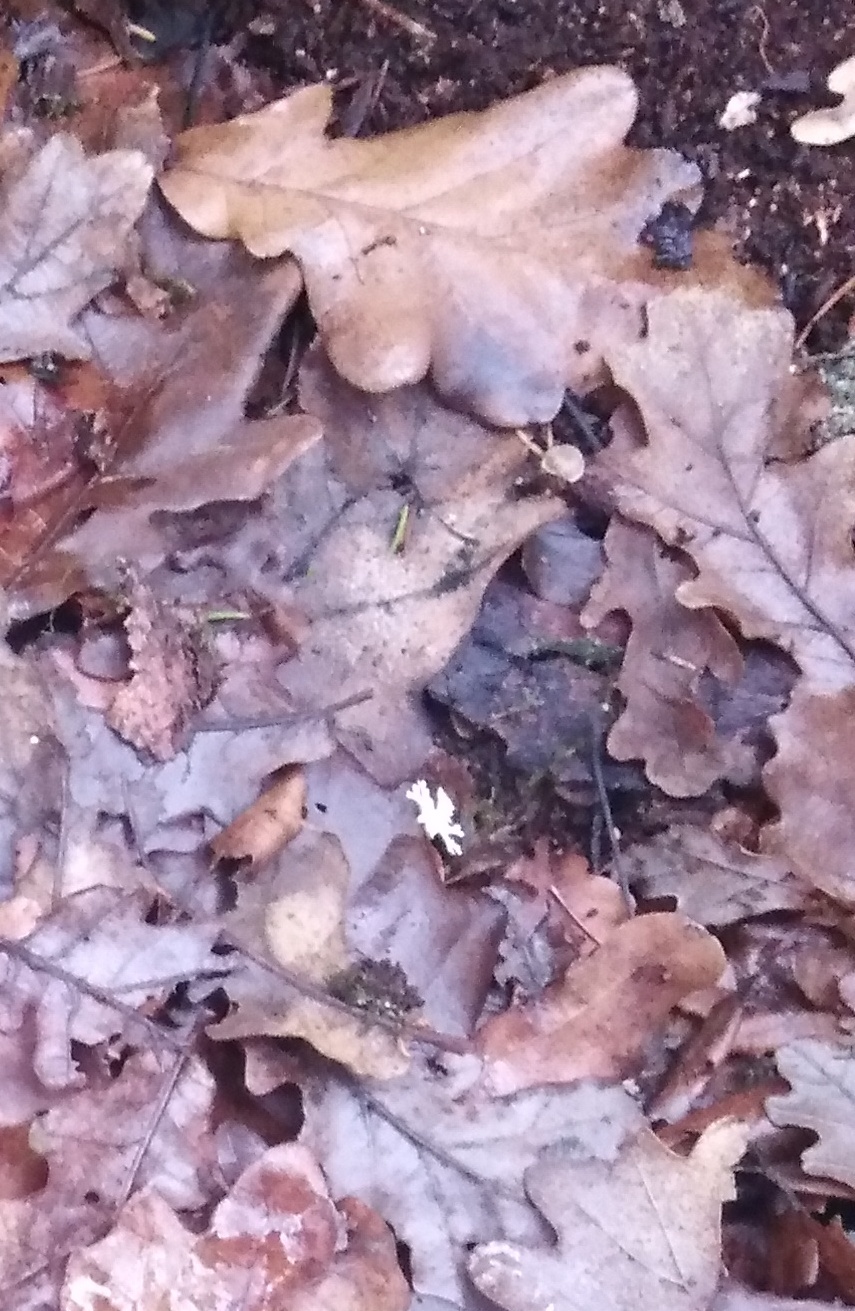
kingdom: Plantae
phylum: Tracheophyta
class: Magnoliopsida
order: Fagales
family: Fagaceae
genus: Quercus
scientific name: Quercus robur
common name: Pedunculate oak
